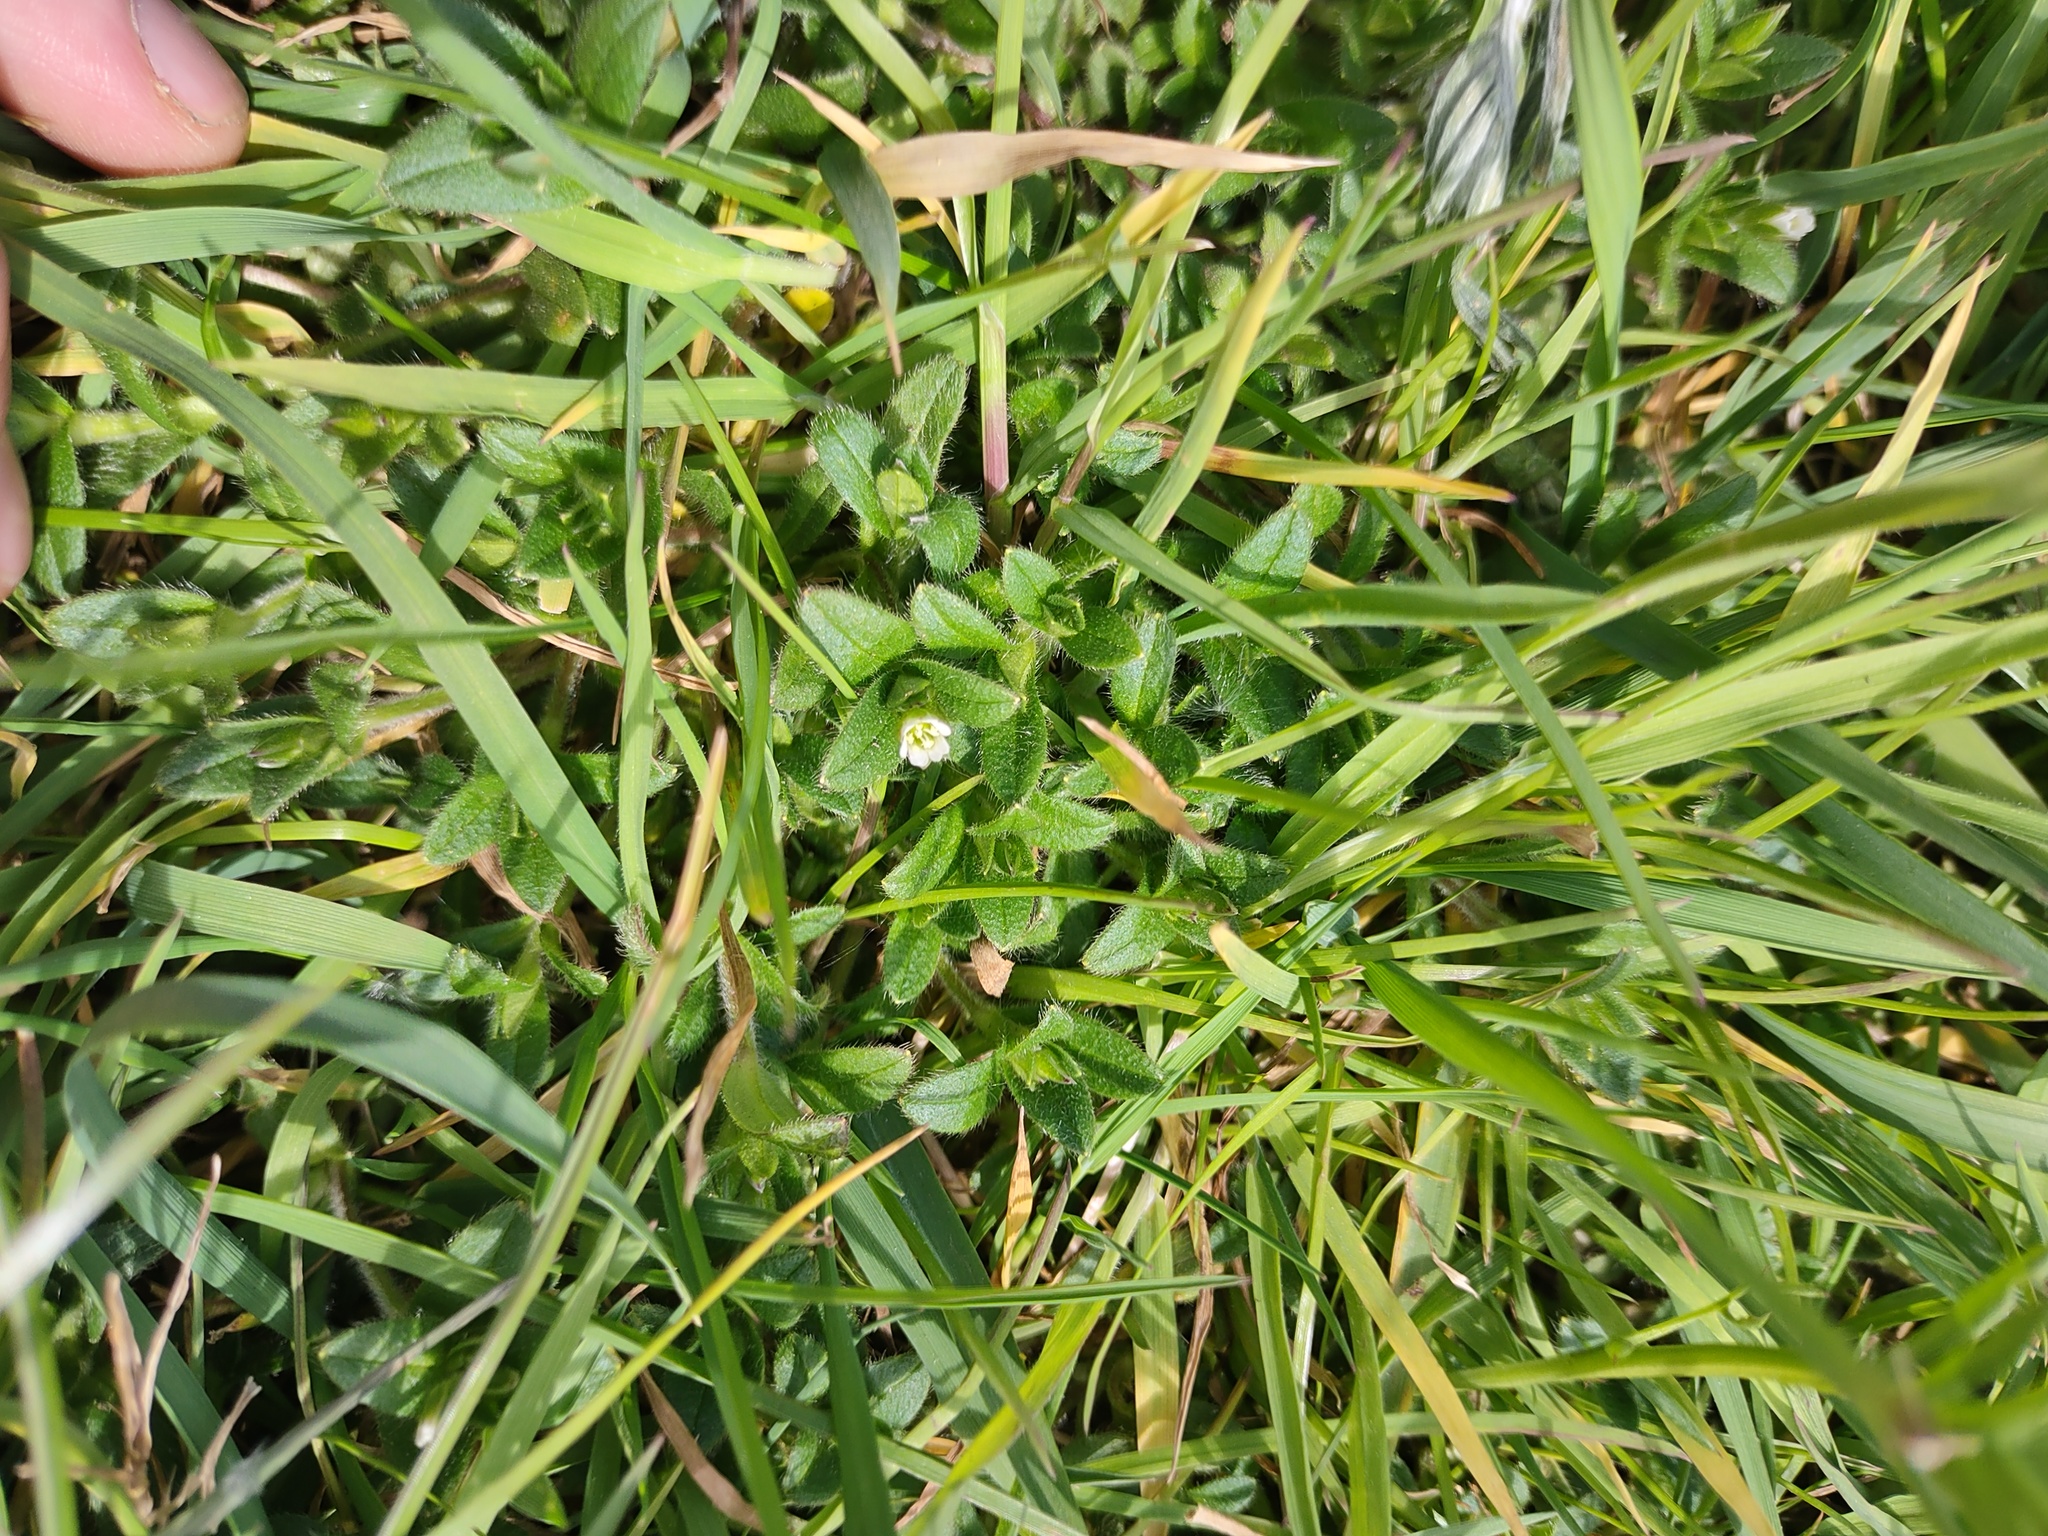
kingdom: Plantae
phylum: Tracheophyta
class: Magnoliopsida
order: Caryophyllales
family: Caryophyllaceae
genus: Cerastium
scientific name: Cerastium fontanum
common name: Common mouse-ear
